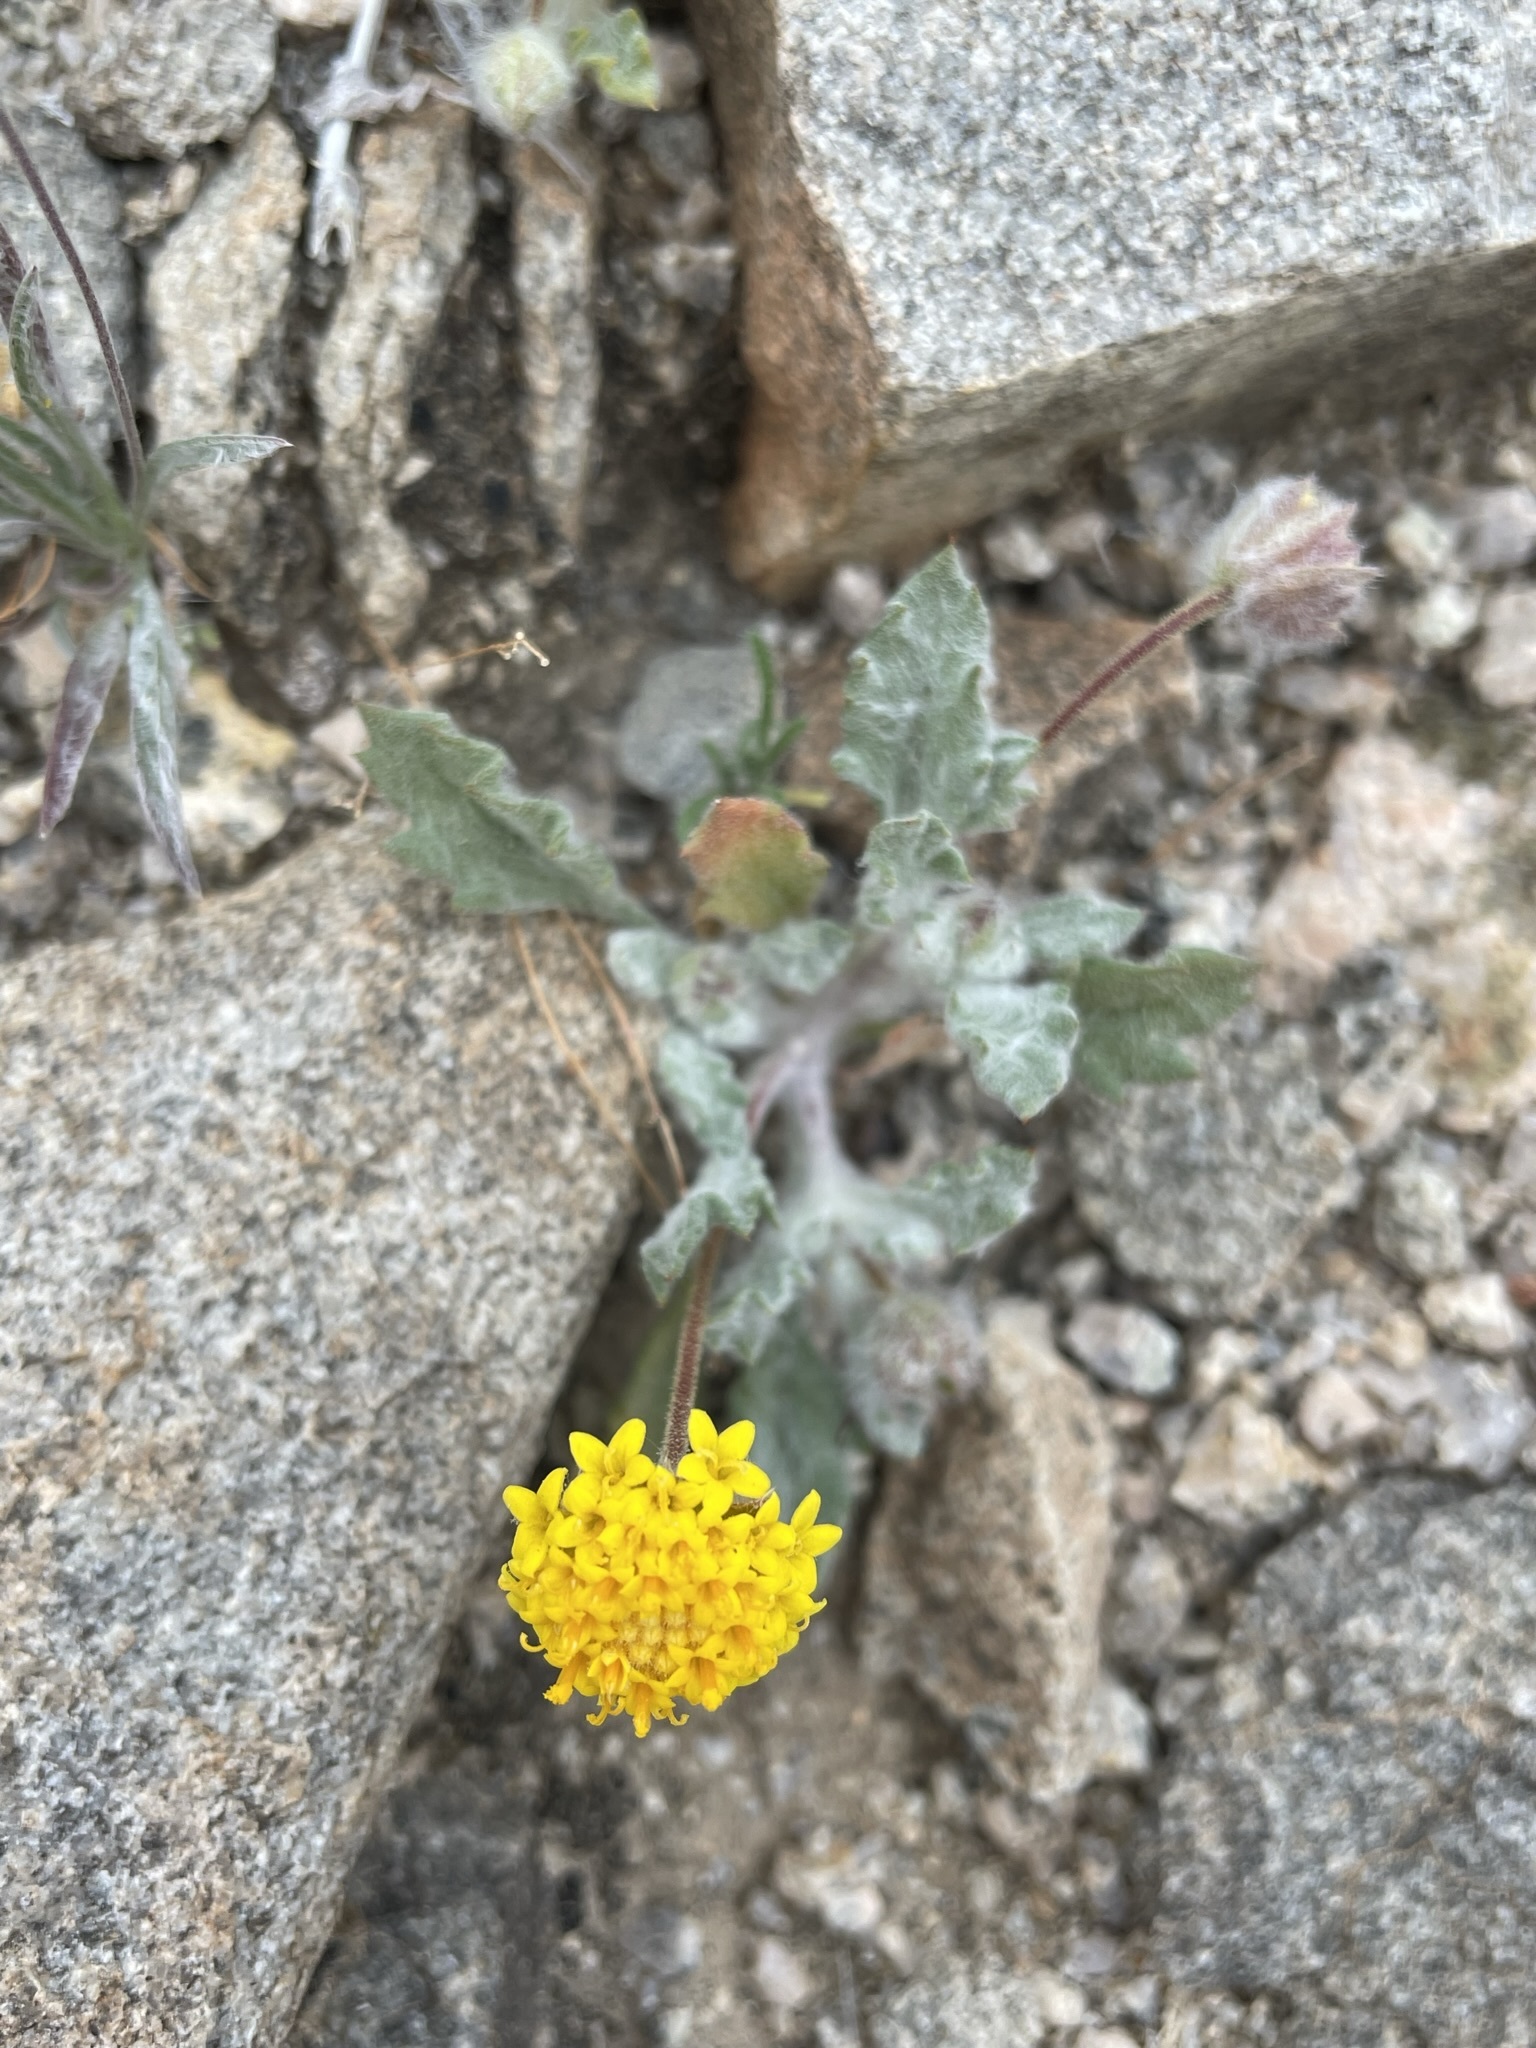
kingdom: Plantae
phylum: Tracheophyta
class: Magnoliopsida
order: Asterales
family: Asteraceae
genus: Trichoptilium
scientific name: Trichoptilium incisum
